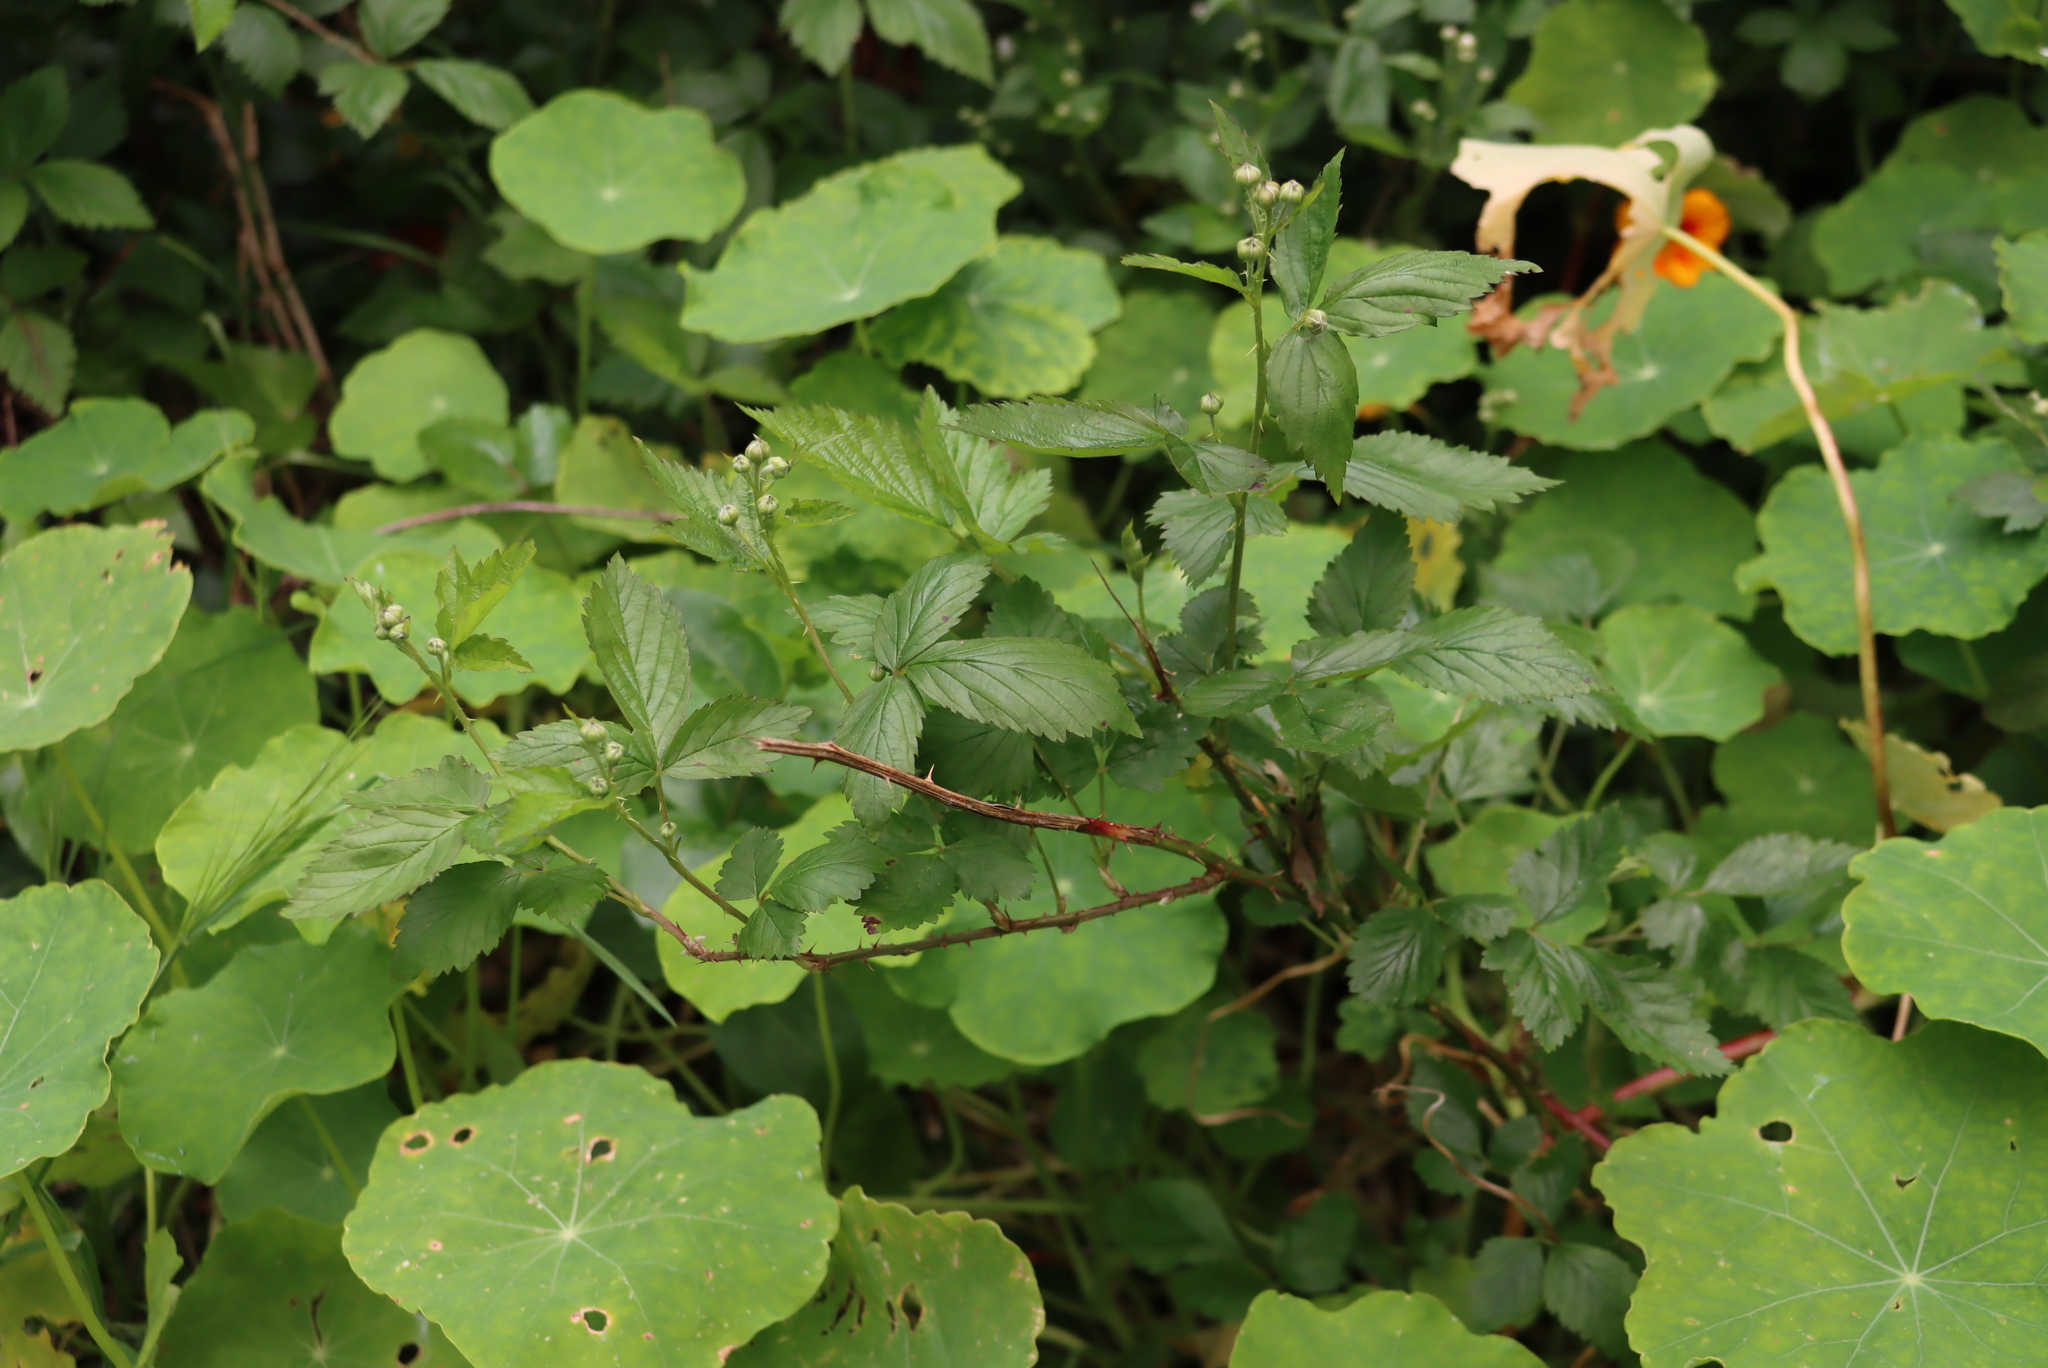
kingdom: Plantae
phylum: Tracheophyta
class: Magnoliopsida
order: Brassicales
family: Tropaeolaceae
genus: Tropaeolum
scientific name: Tropaeolum majus
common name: Nasturtium
